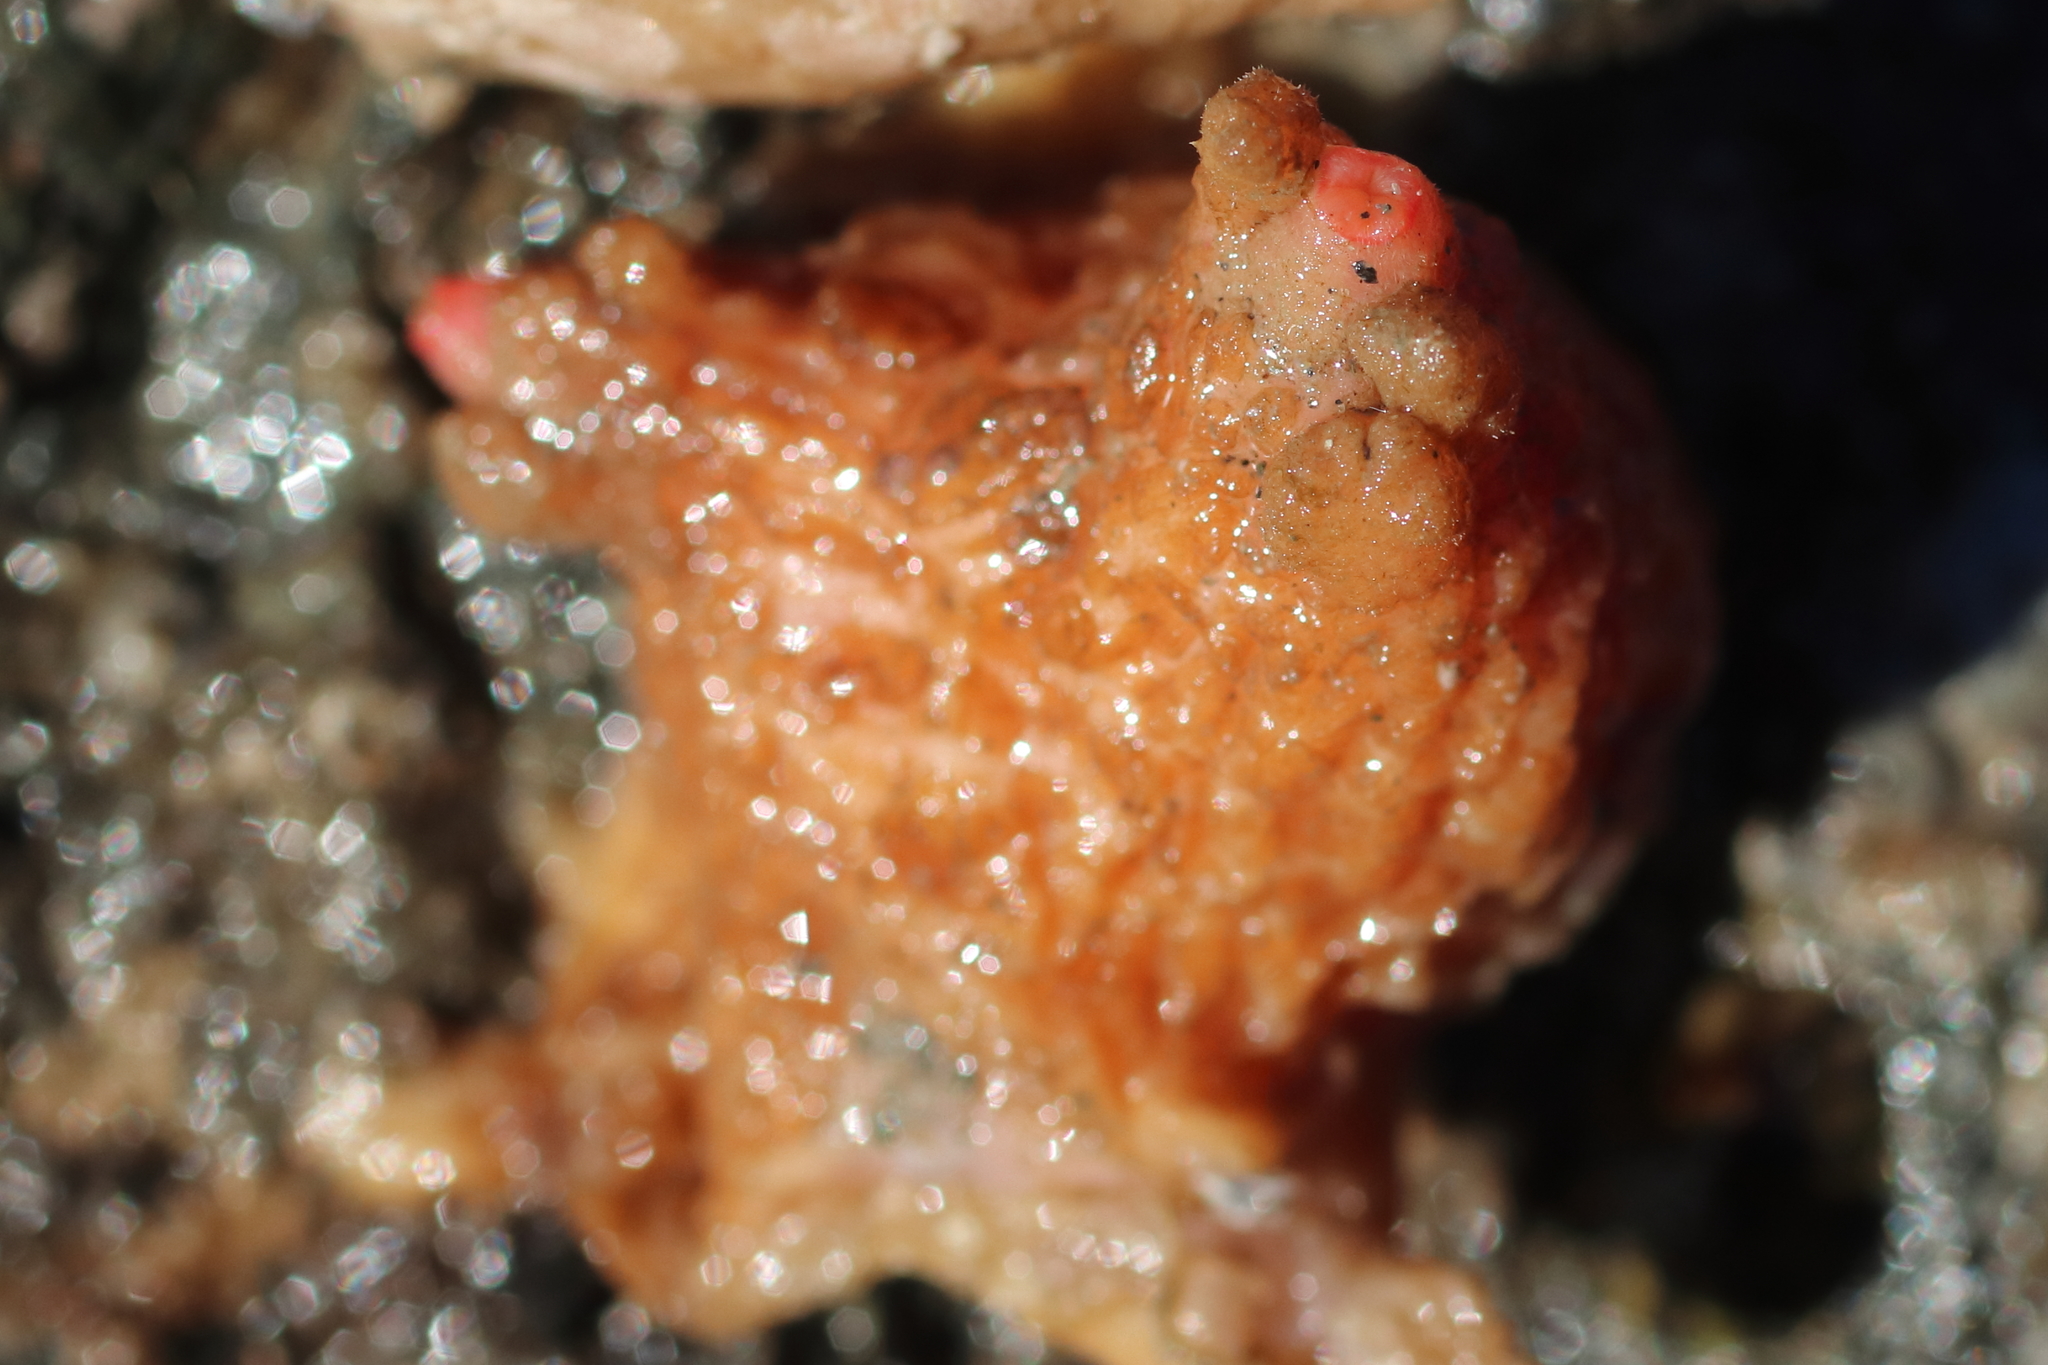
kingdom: Animalia
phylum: Chordata
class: Ascidiacea
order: Stolidobranchia
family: Pyuridae
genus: Pyura
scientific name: Pyura haustor
